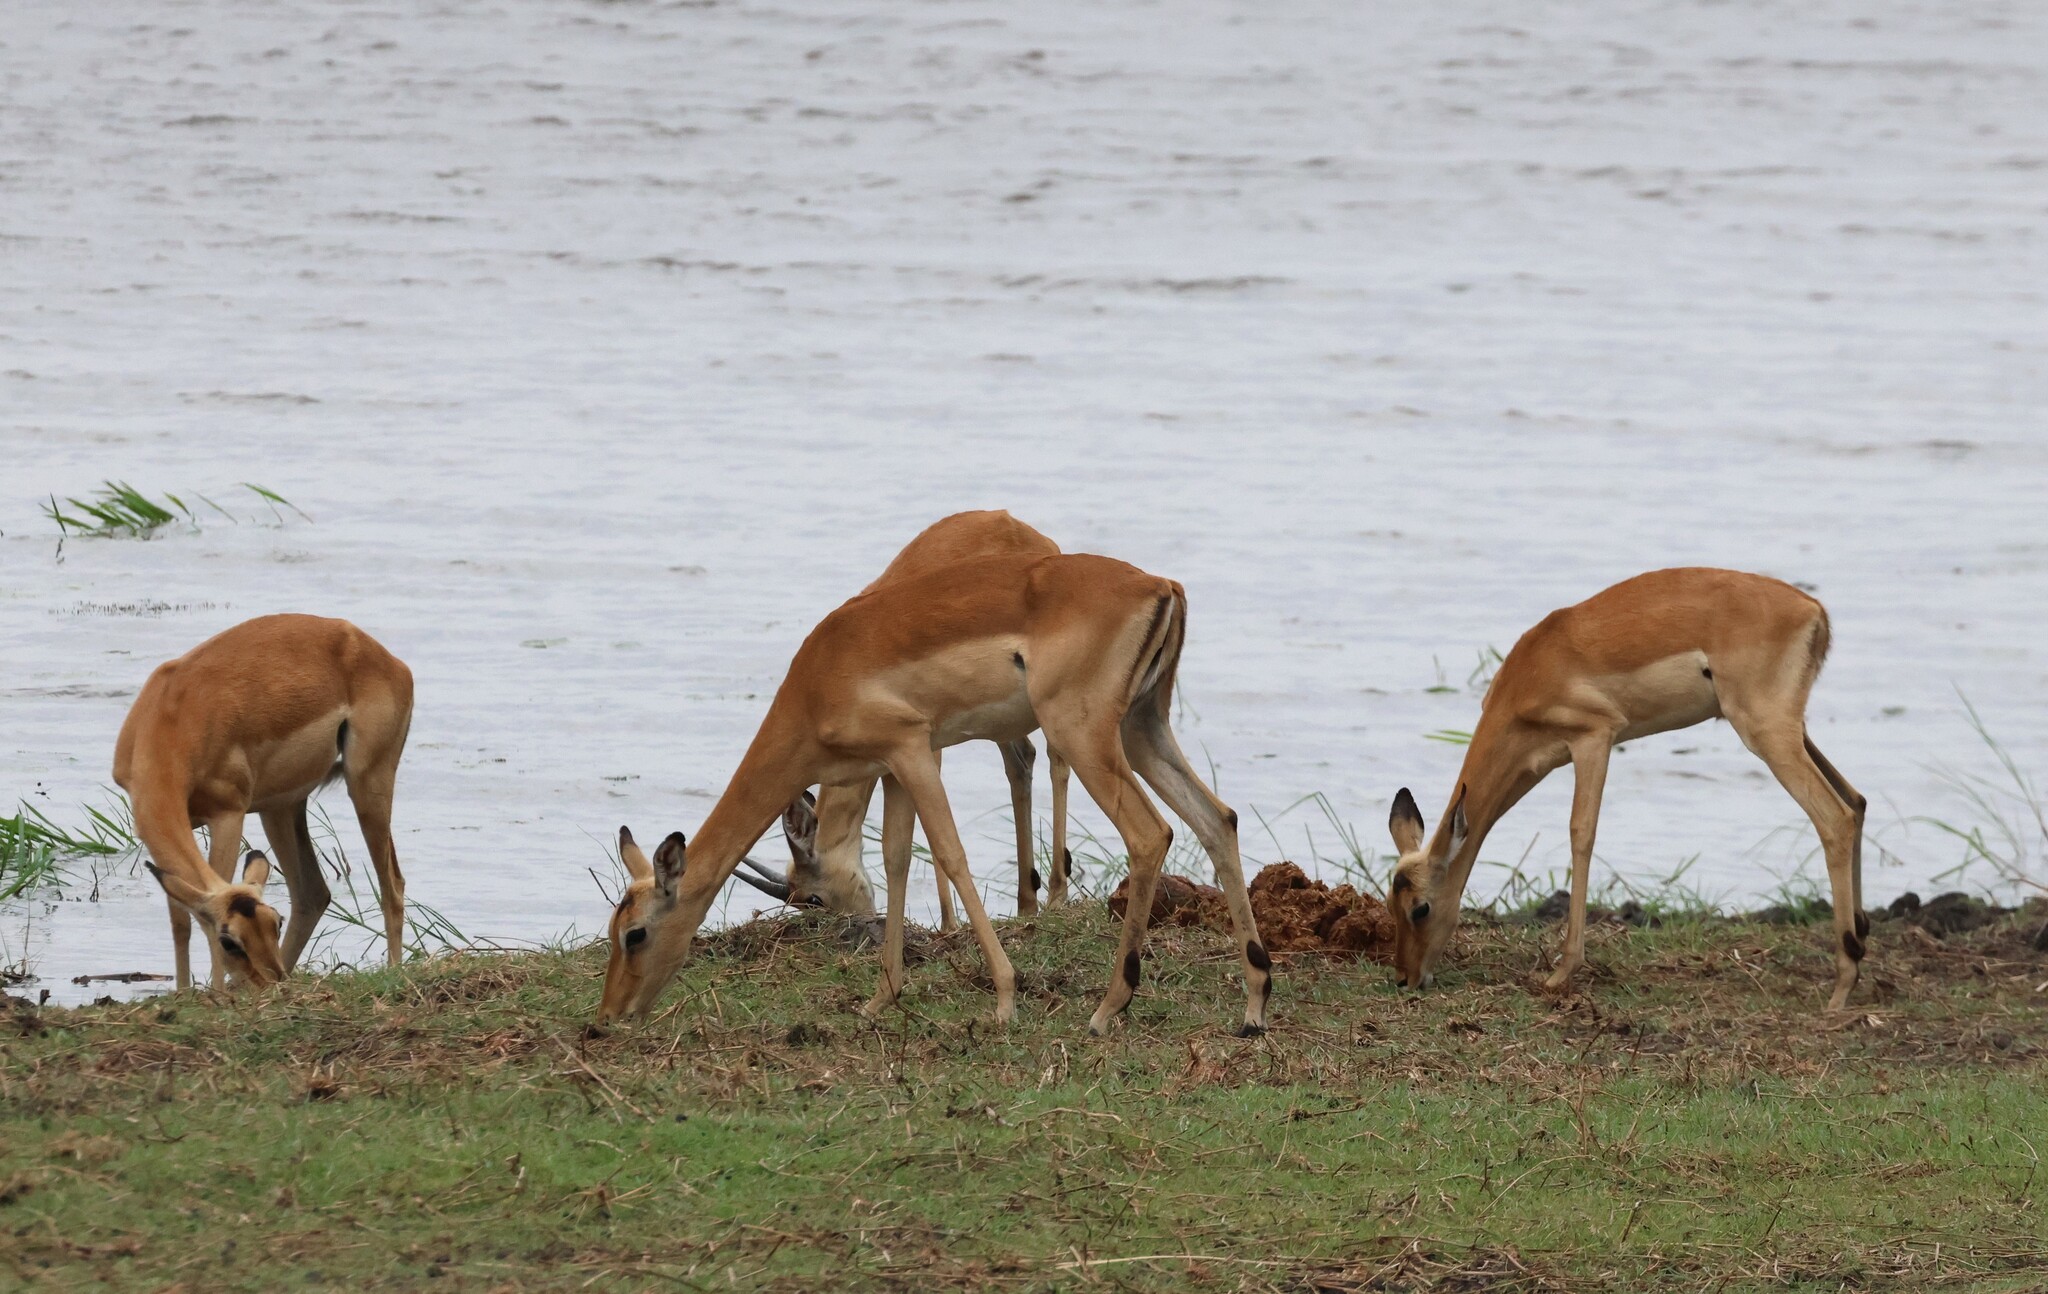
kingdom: Animalia
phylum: Chordata
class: Mammalia
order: Artiodactyla
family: Bovidae
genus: Aepyceros
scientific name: Aepyceros melampus
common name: Impala
